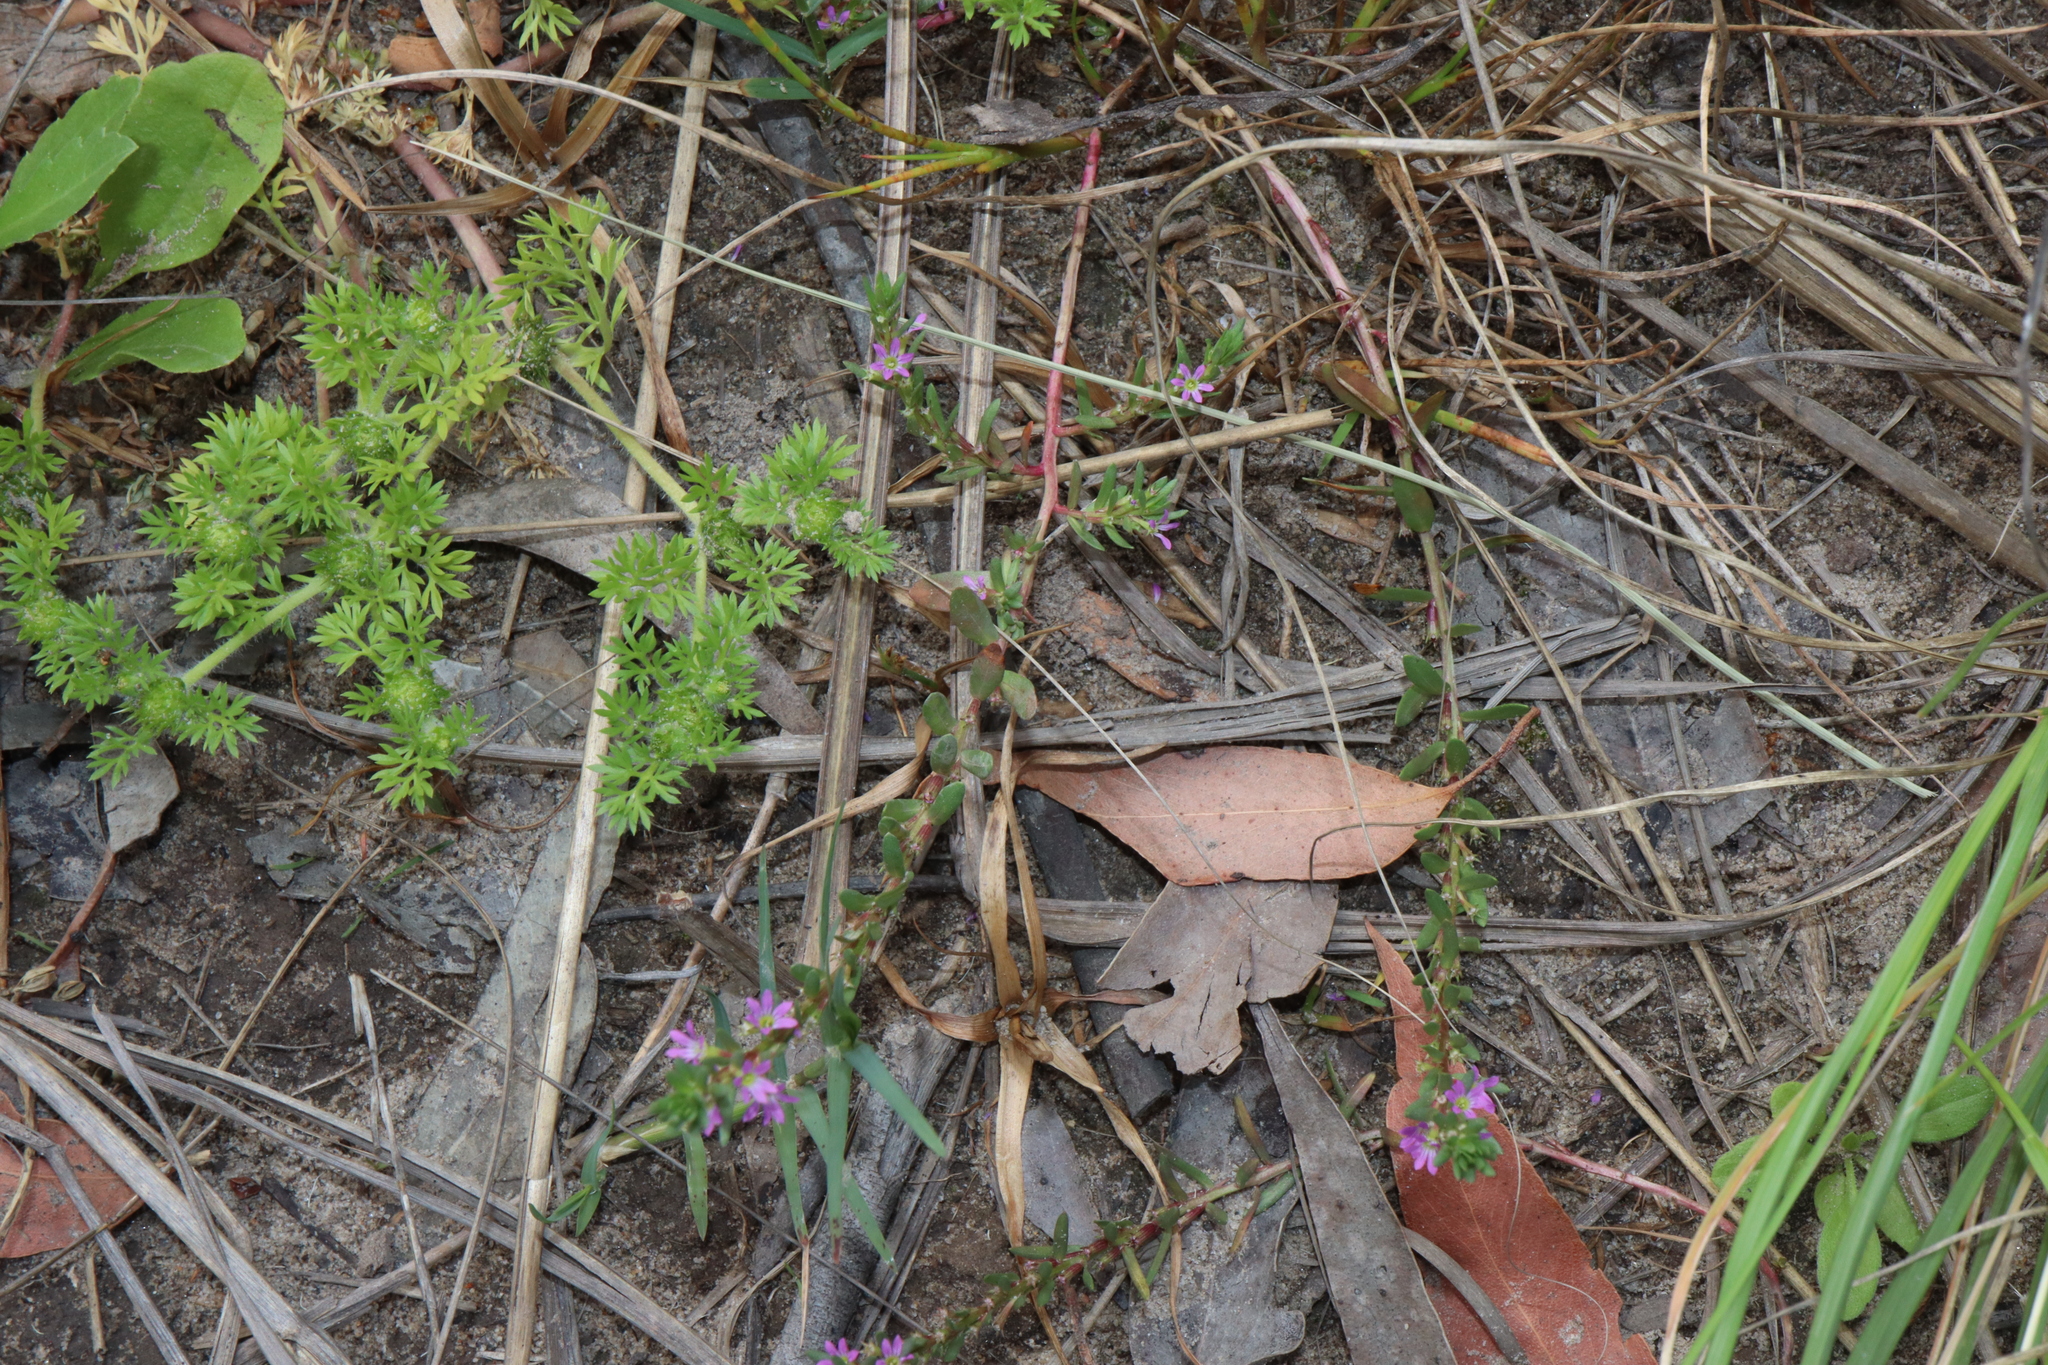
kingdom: Plantae
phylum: Tracheophyta
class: Magnoliopsida
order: Myrtales
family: Lythraceae
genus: Lythrum
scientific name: Lythrum hyssopifolia
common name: Grass-poly
